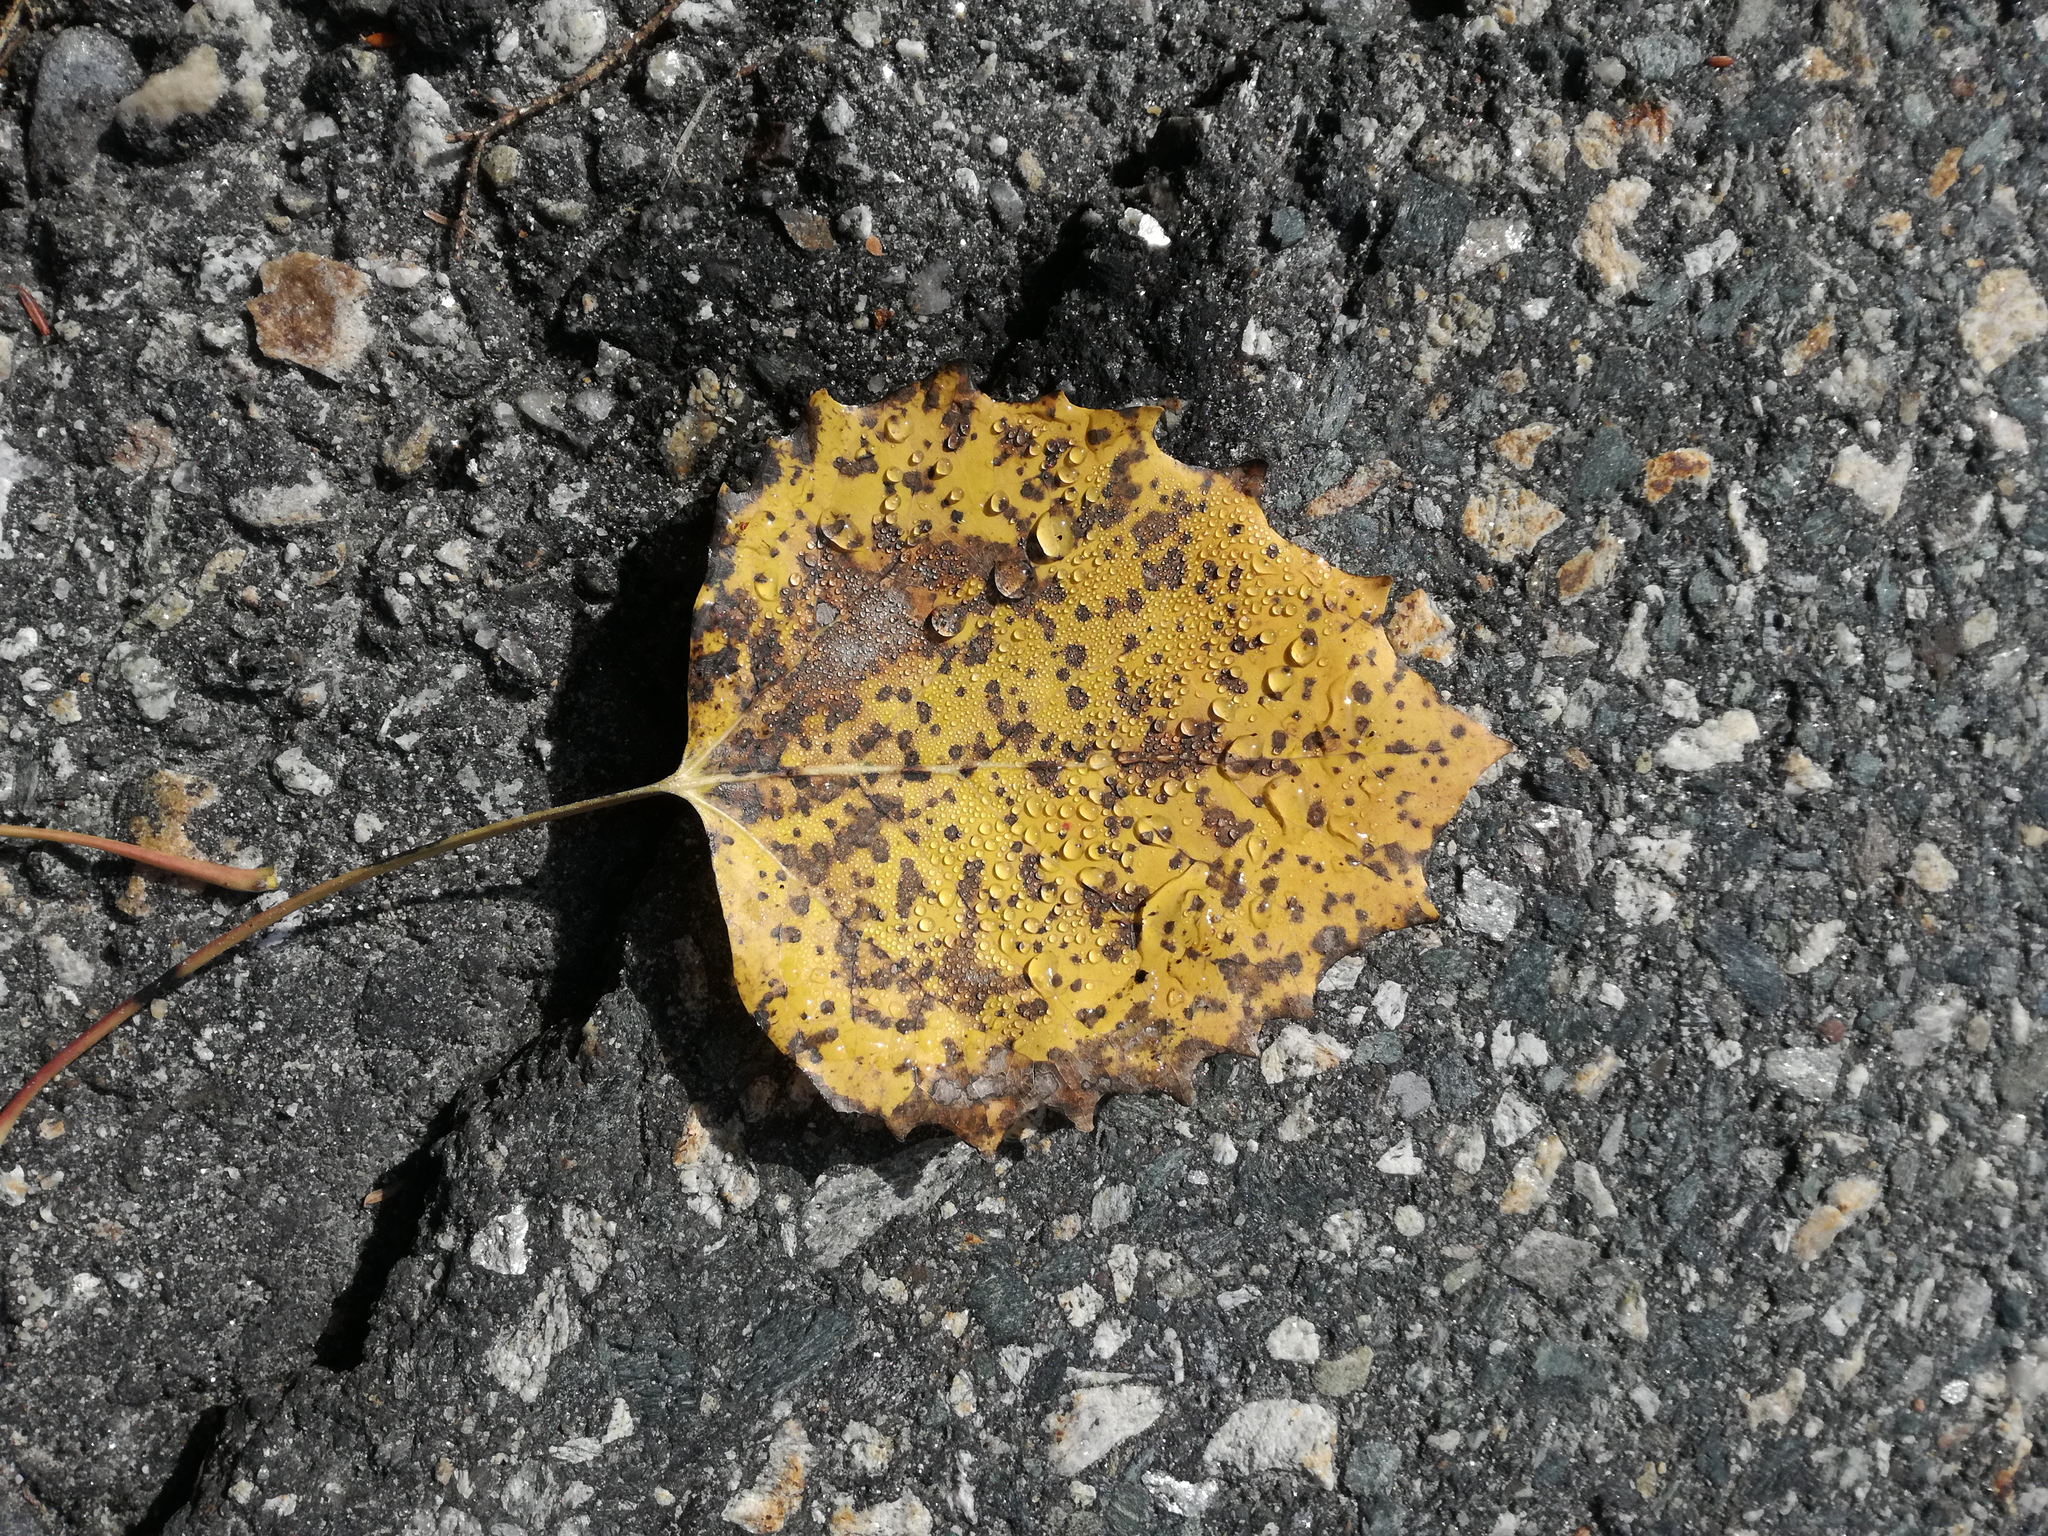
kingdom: Plantae
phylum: Tracheophyta
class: Magnoliopsida
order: Malpighiales
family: Salicaceae
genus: Populus
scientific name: Populus grandidentata
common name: Bigtooth aspen
